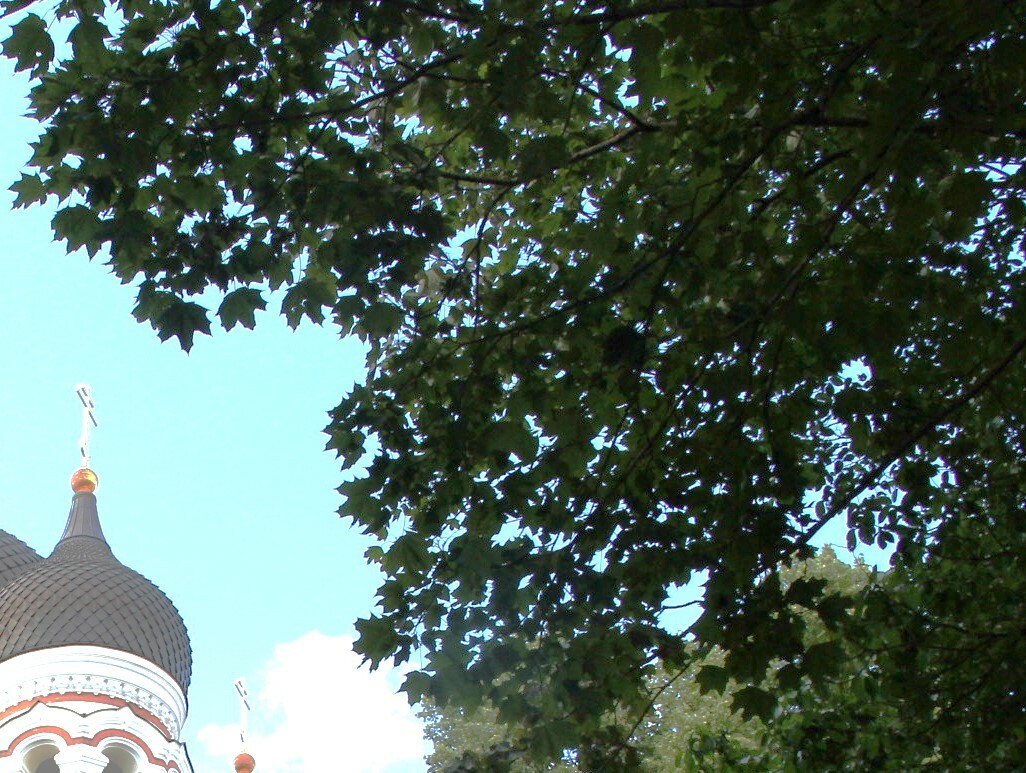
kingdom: Plantae
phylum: Tracheophyta
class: Magnoliopsida
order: Sapindales
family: Sapindaceae
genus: Acer
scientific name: Acer platanoides
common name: Norway maple
